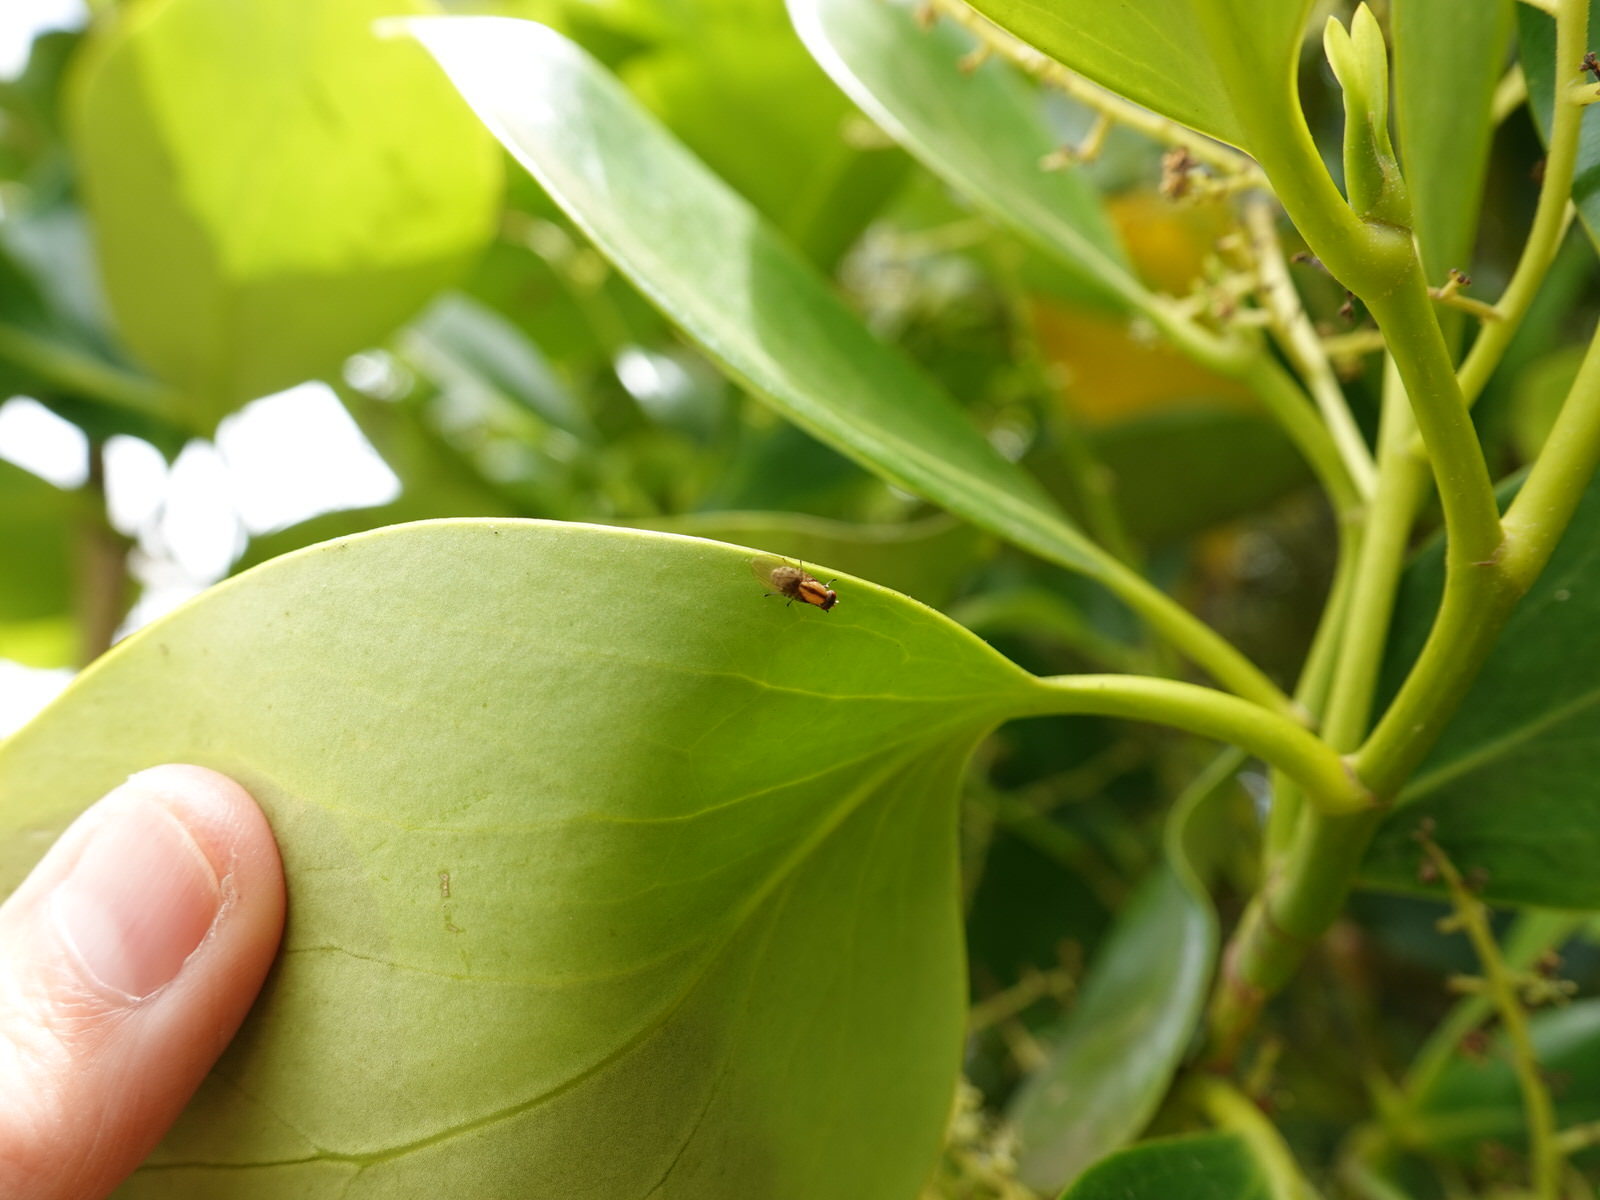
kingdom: Animalia
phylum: Arthropoda
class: Insecta
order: Diptera
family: Lauxaniidae
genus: Sapromyza
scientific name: Sapromyza neozelandica
